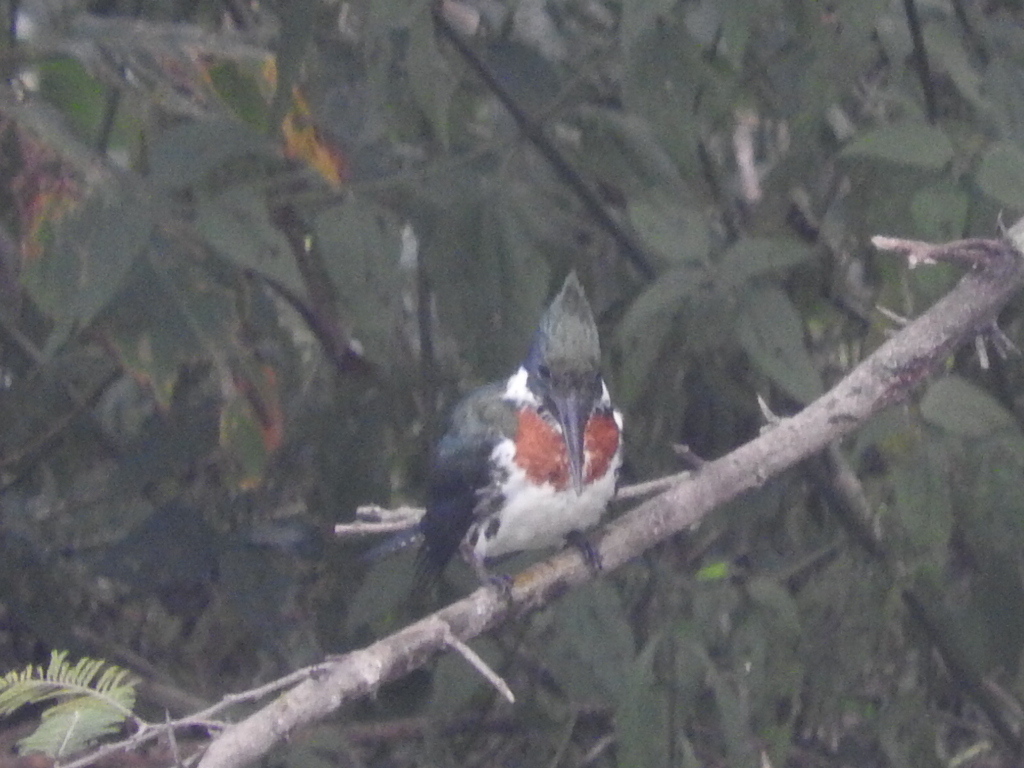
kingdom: Animalia
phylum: Chordata
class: Aves
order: Coraciiformes
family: Alcedinidae
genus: Chloroceryle
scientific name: Chloroceryle amazona
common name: Amazon kingfisher
